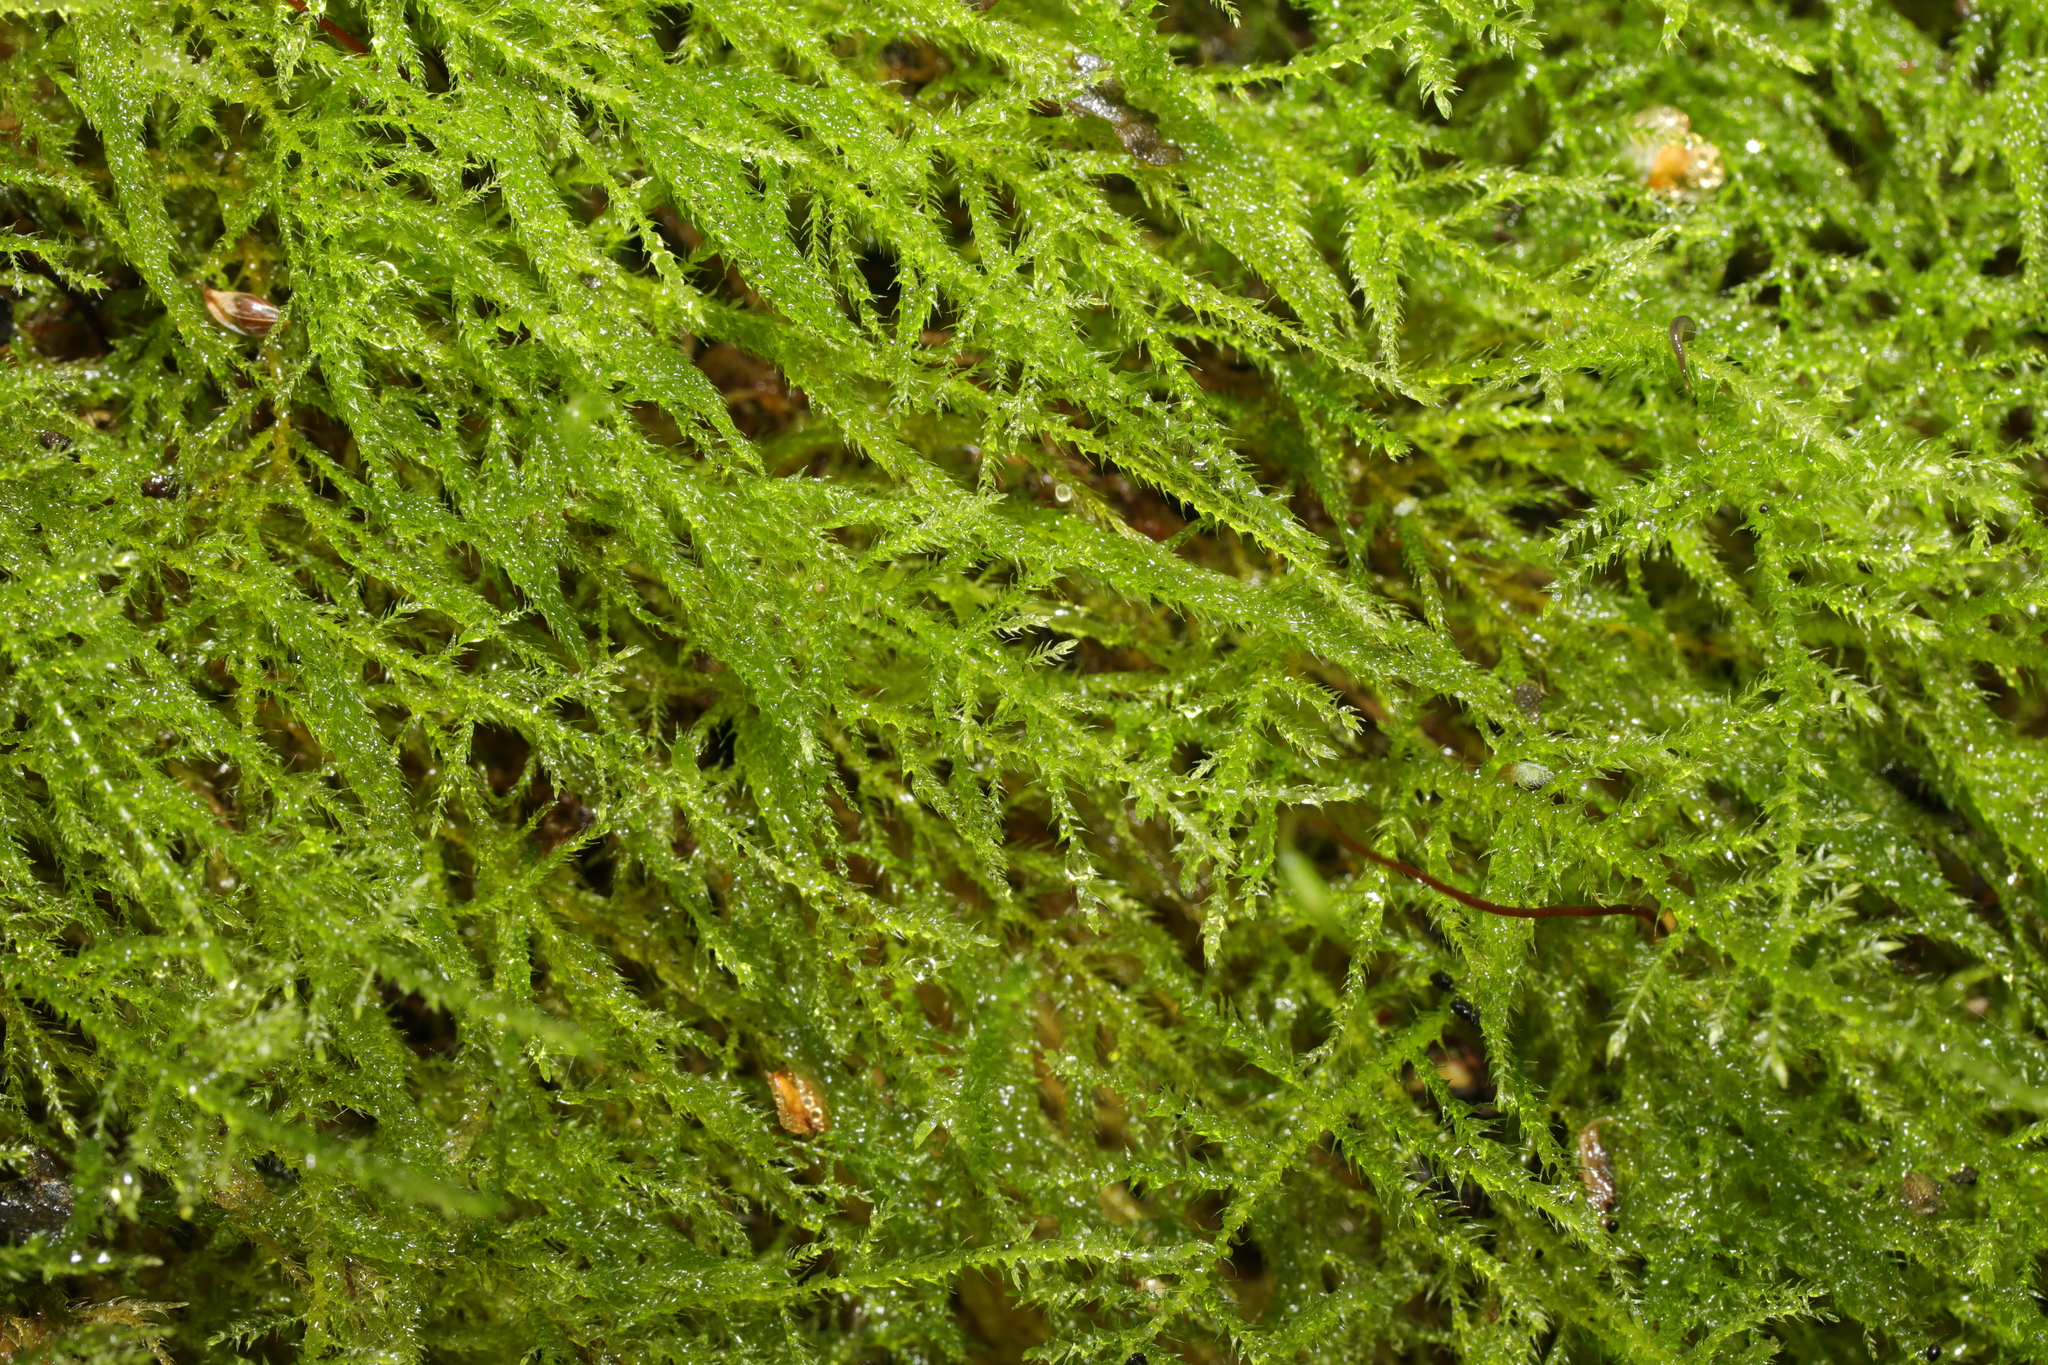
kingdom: Plantae
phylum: Bryophyta
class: Bryopsida
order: Hypnales
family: Brachytheciaceae
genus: Kindbergia
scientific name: Kindbergia praelonga
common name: Slender beaked moss
